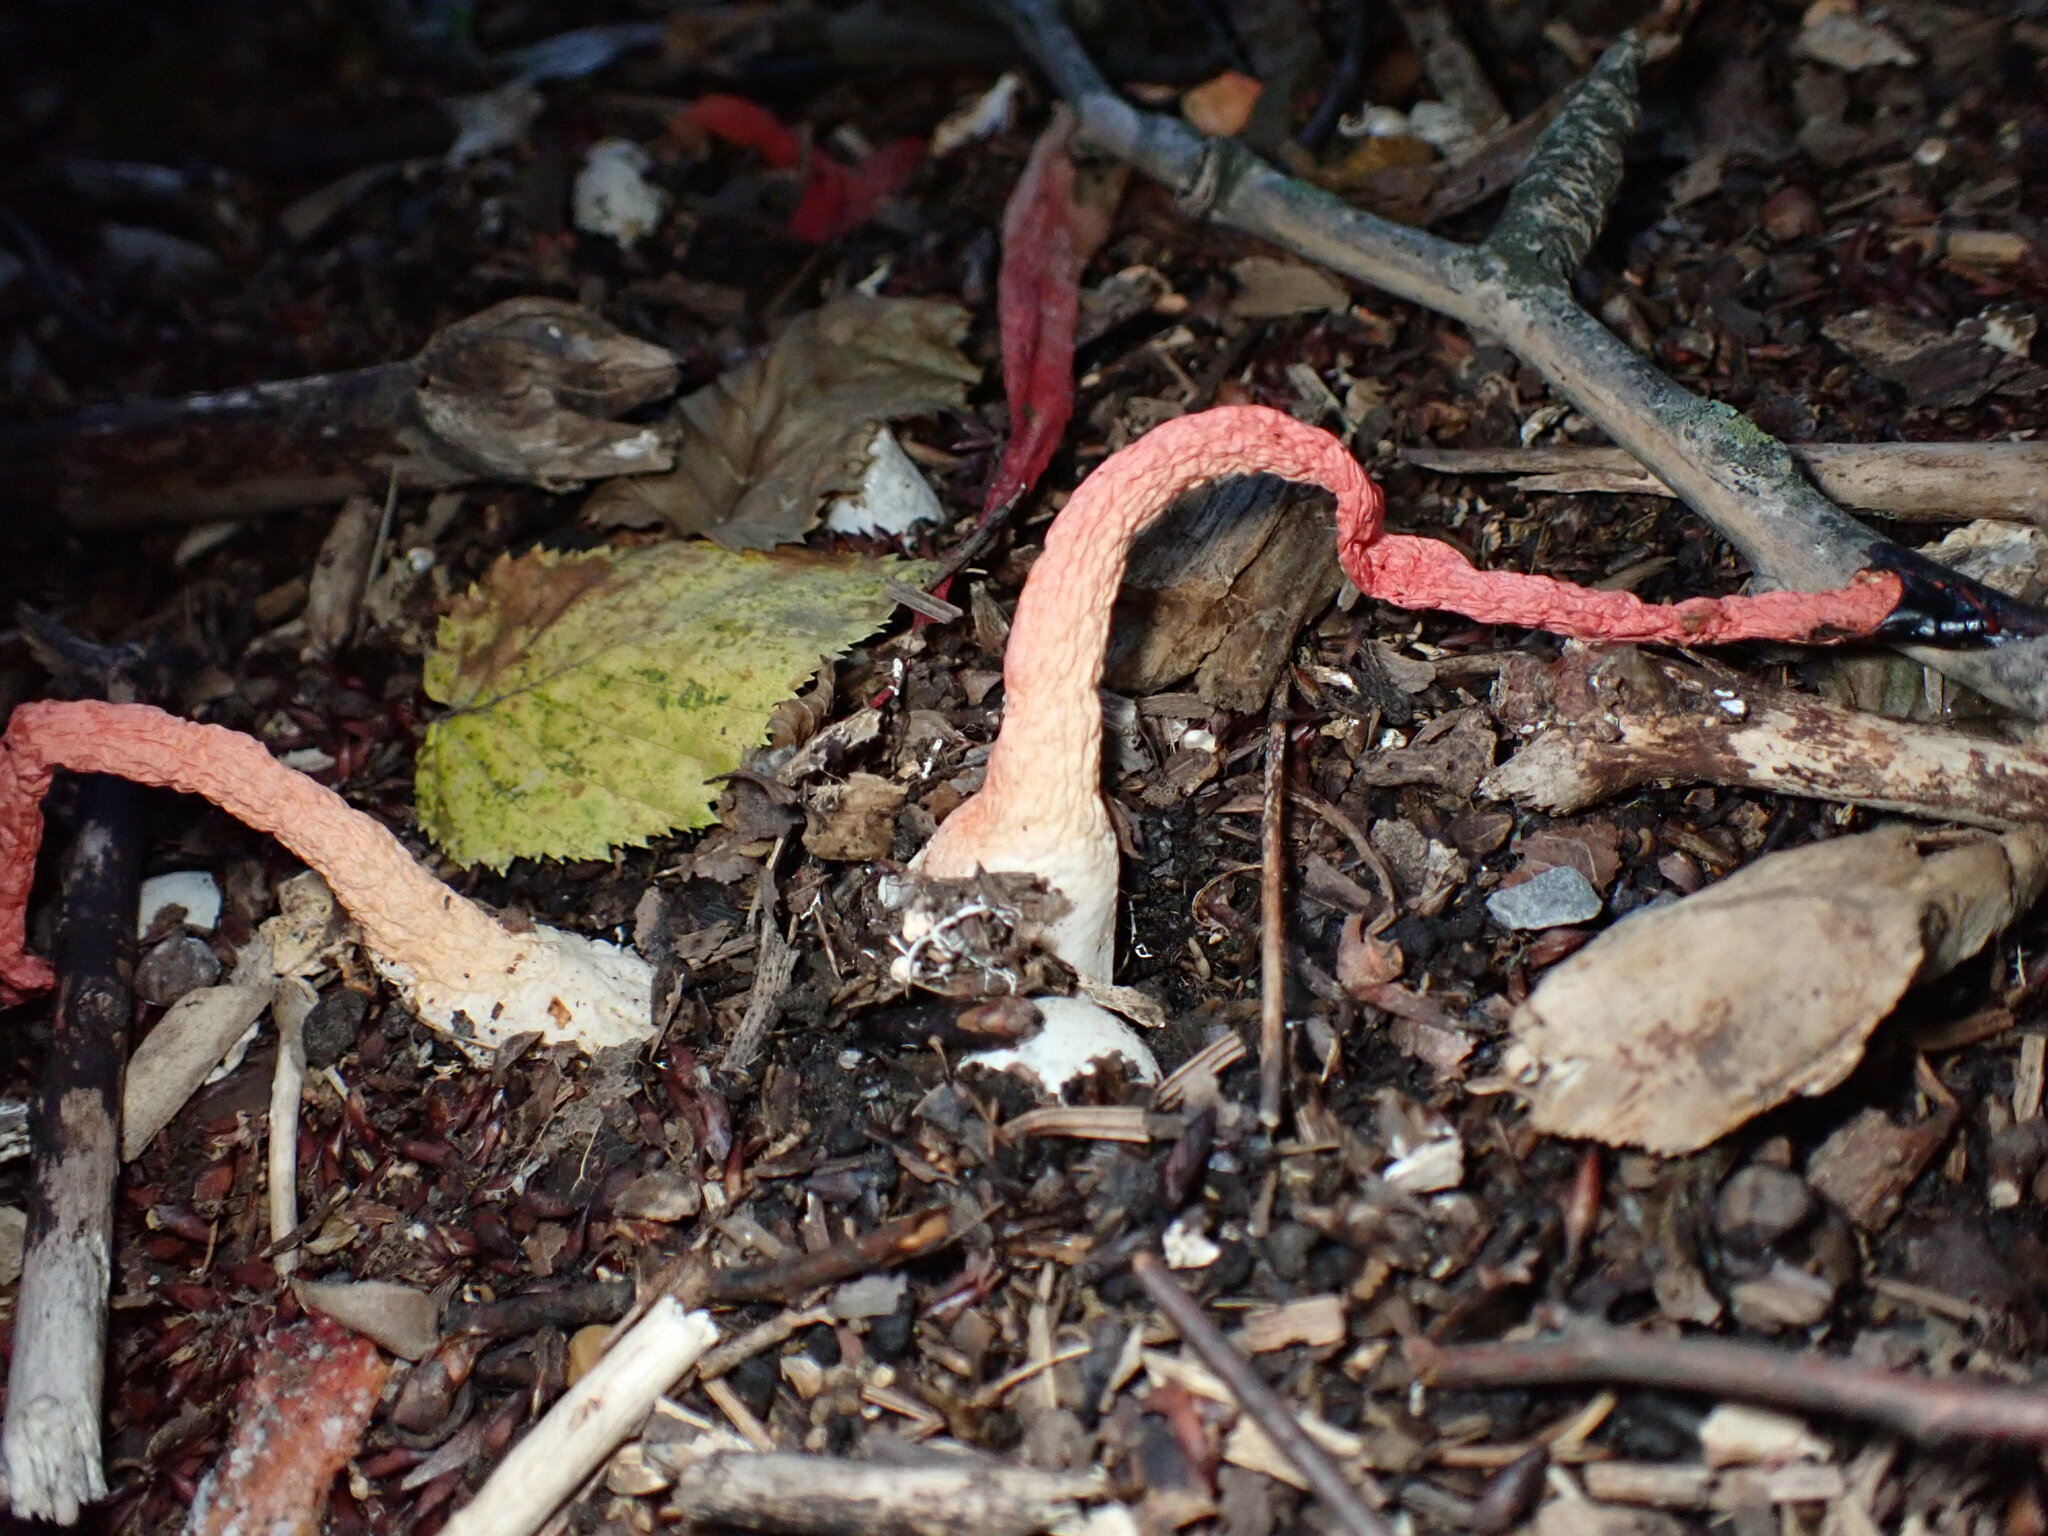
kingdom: Fungi
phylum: Basidiomycota
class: Agaricomycetes
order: Phallales
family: Phallaceae
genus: Phallus
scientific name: Phallus rugulosus
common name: Wrinkly stinkhorn
